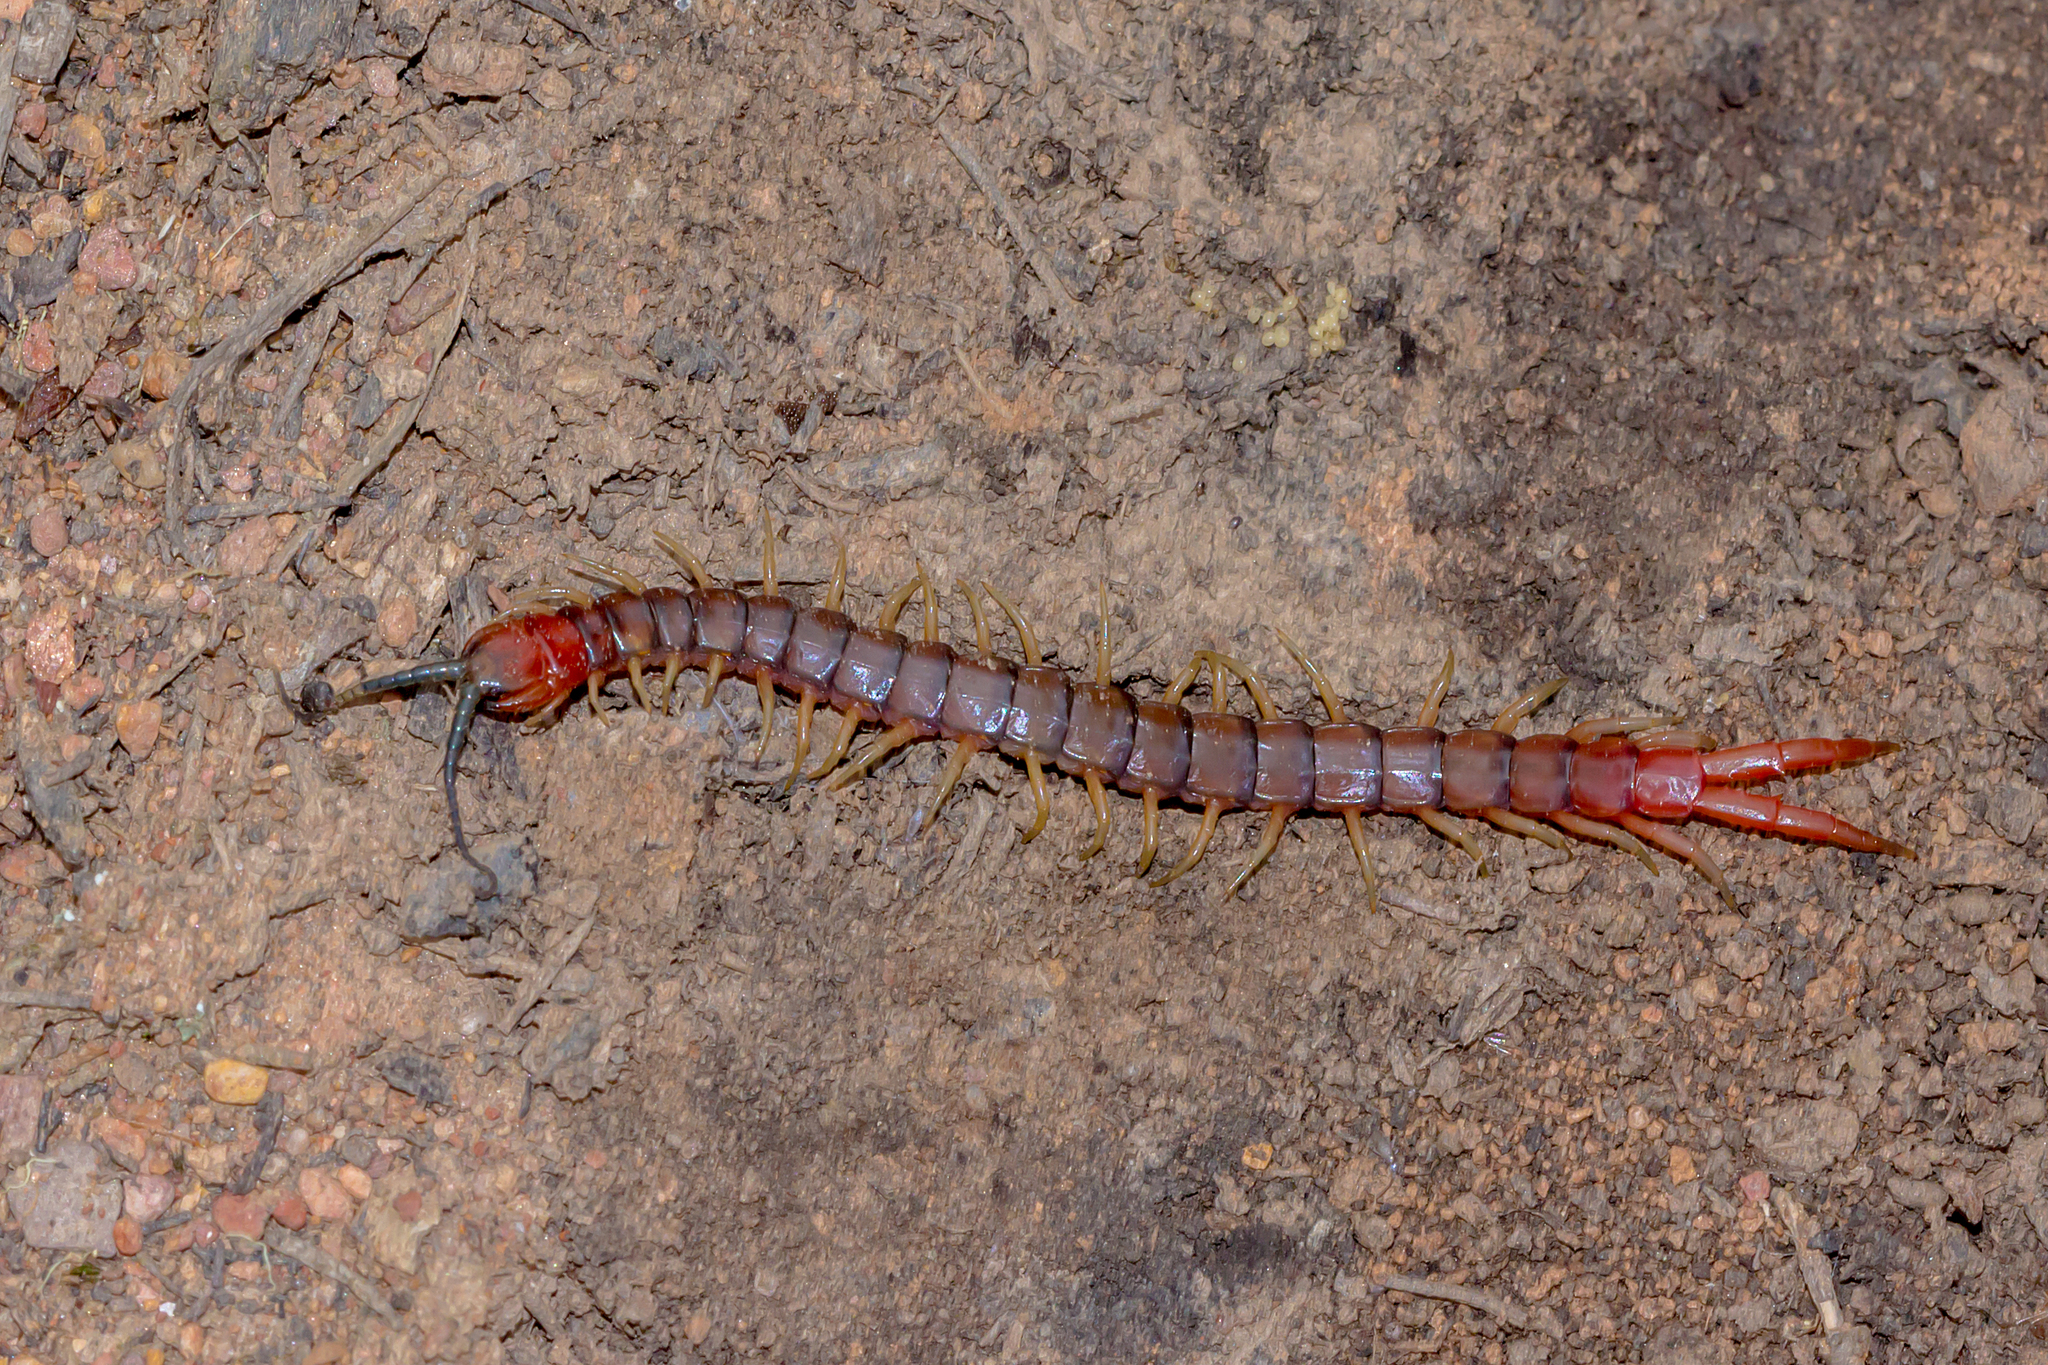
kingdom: Animalia
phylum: Arthropoda
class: Chilopoda
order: Scolopendromorpha
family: Scolopendridae
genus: Cormocephalus
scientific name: Cormocephalus aurantiipes
